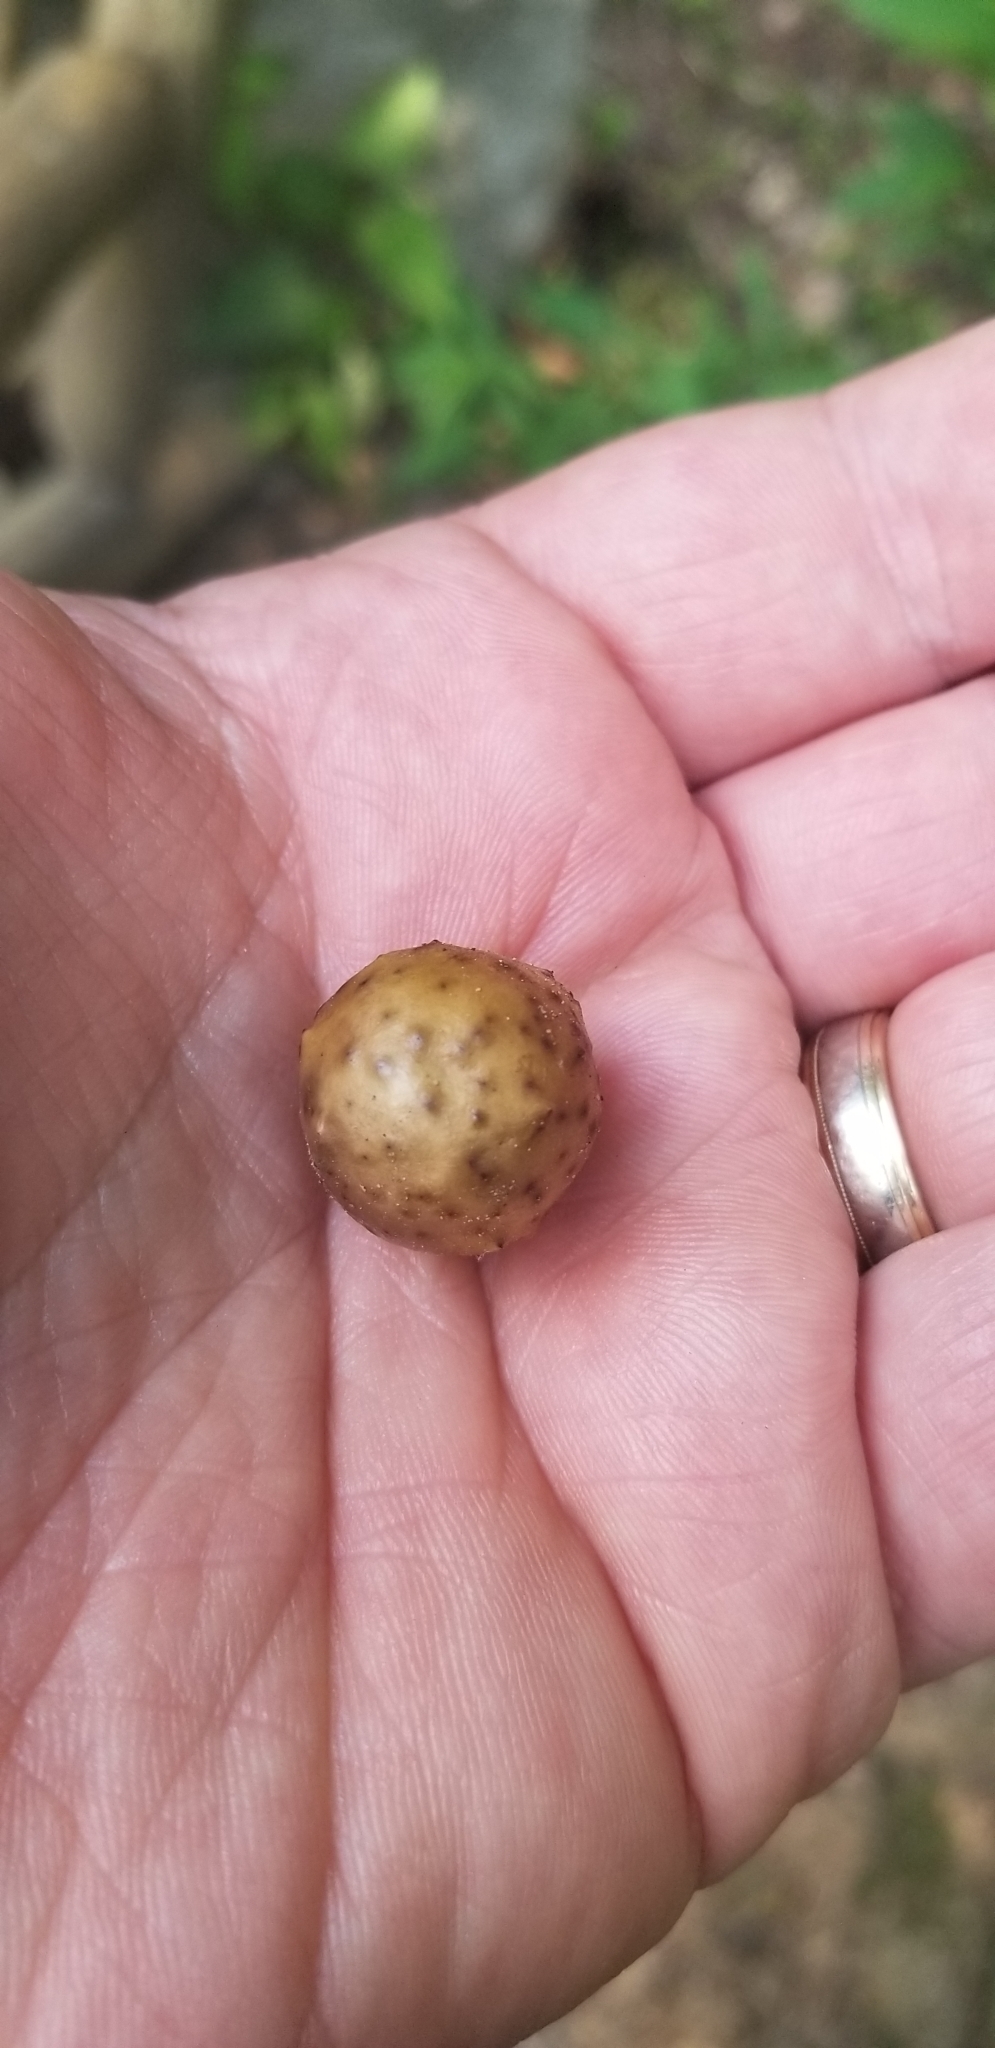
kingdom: Animalia
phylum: Arthropoda
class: Insecta
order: Hymenoptera
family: Cynipidae
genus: Amphibolips
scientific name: Amphibolips
